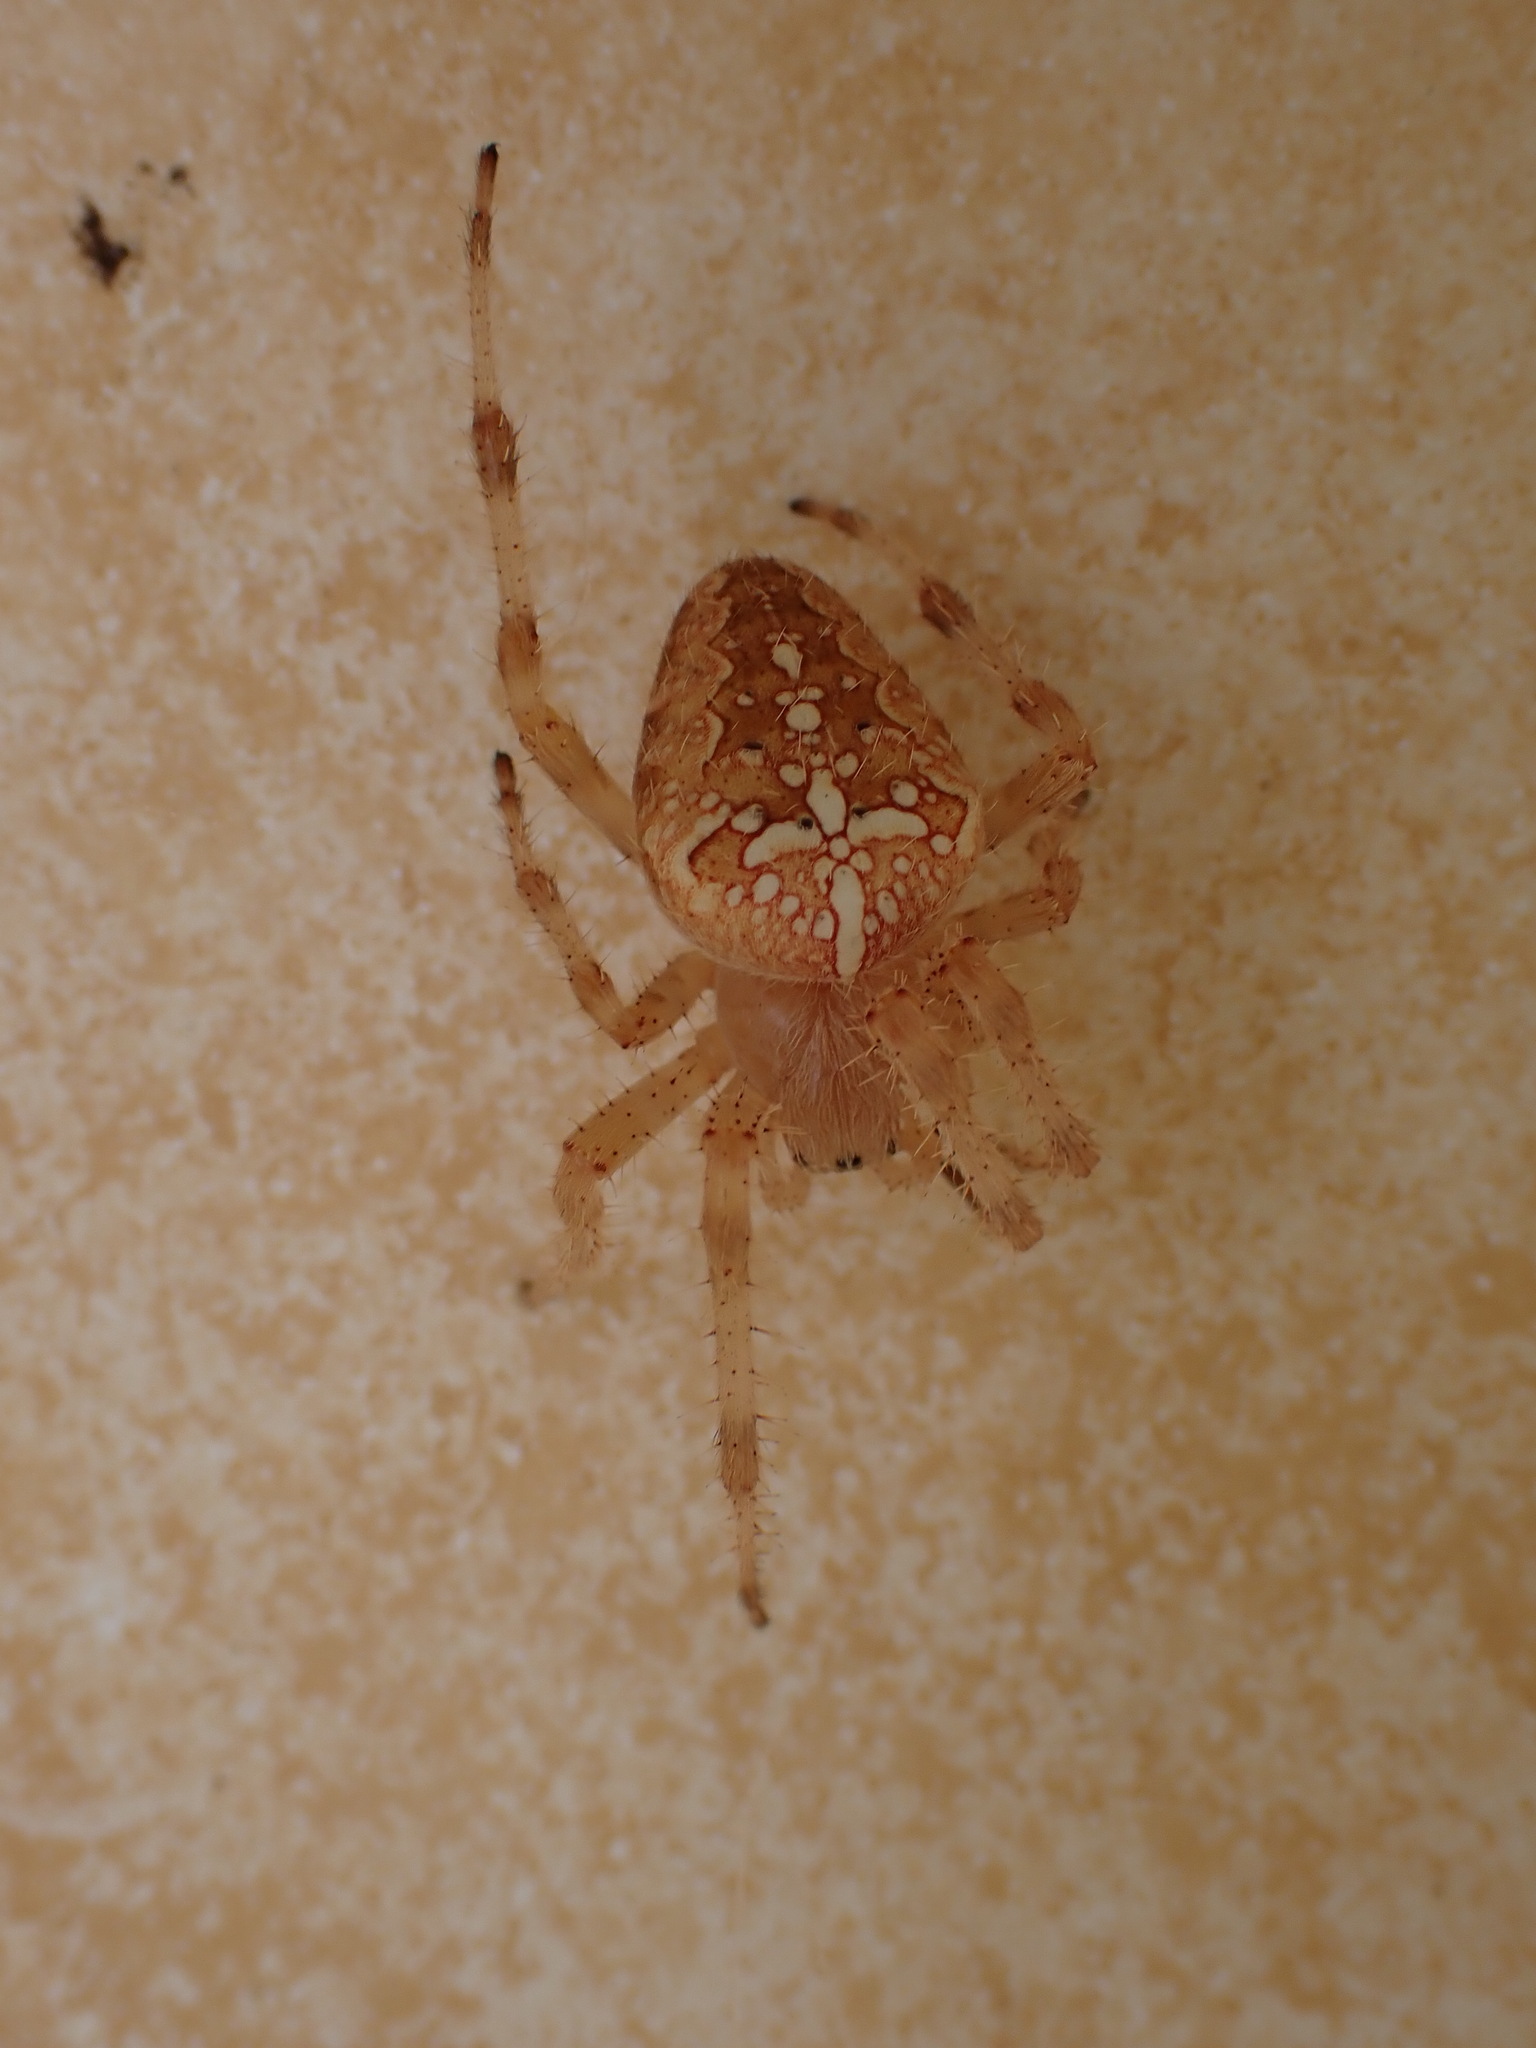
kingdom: Animalia
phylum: Arthropoda
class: Arachnida
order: Araneae
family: Araneidae
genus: Araneus
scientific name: Araneus diadematus
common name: Cross orbweaver
